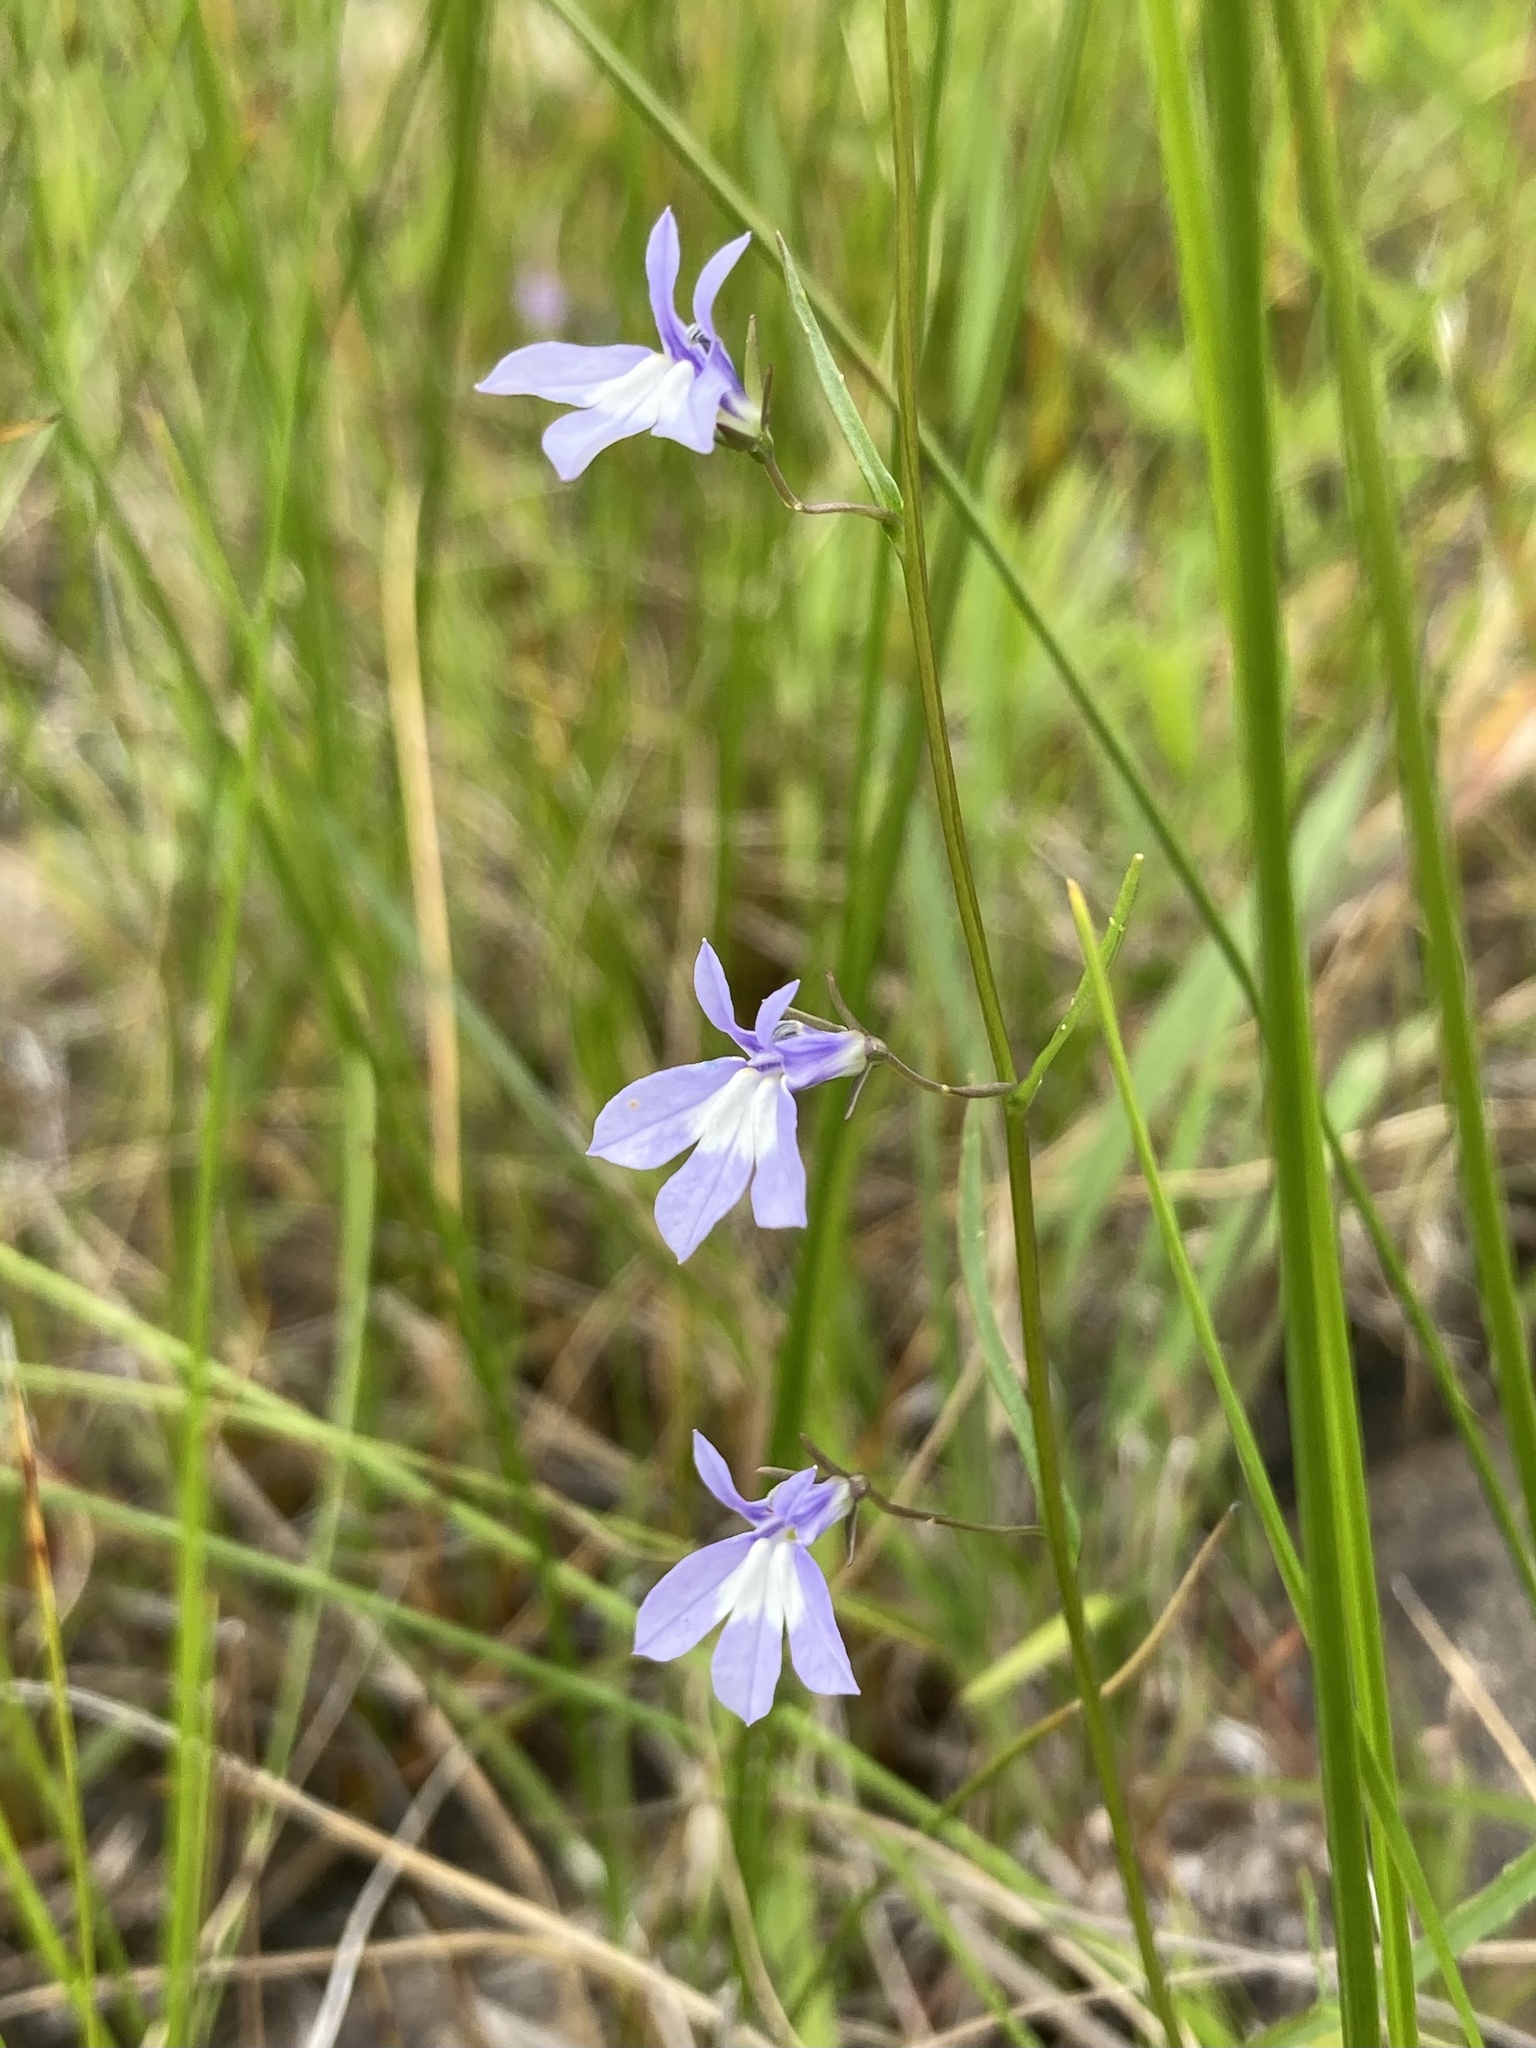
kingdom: Plantae
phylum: Tracheophyta
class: Magnoliopsida
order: Asterales
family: Campanulaceae
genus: Lobelia
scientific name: Lobelia kalmii
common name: Kalm's lobelia
